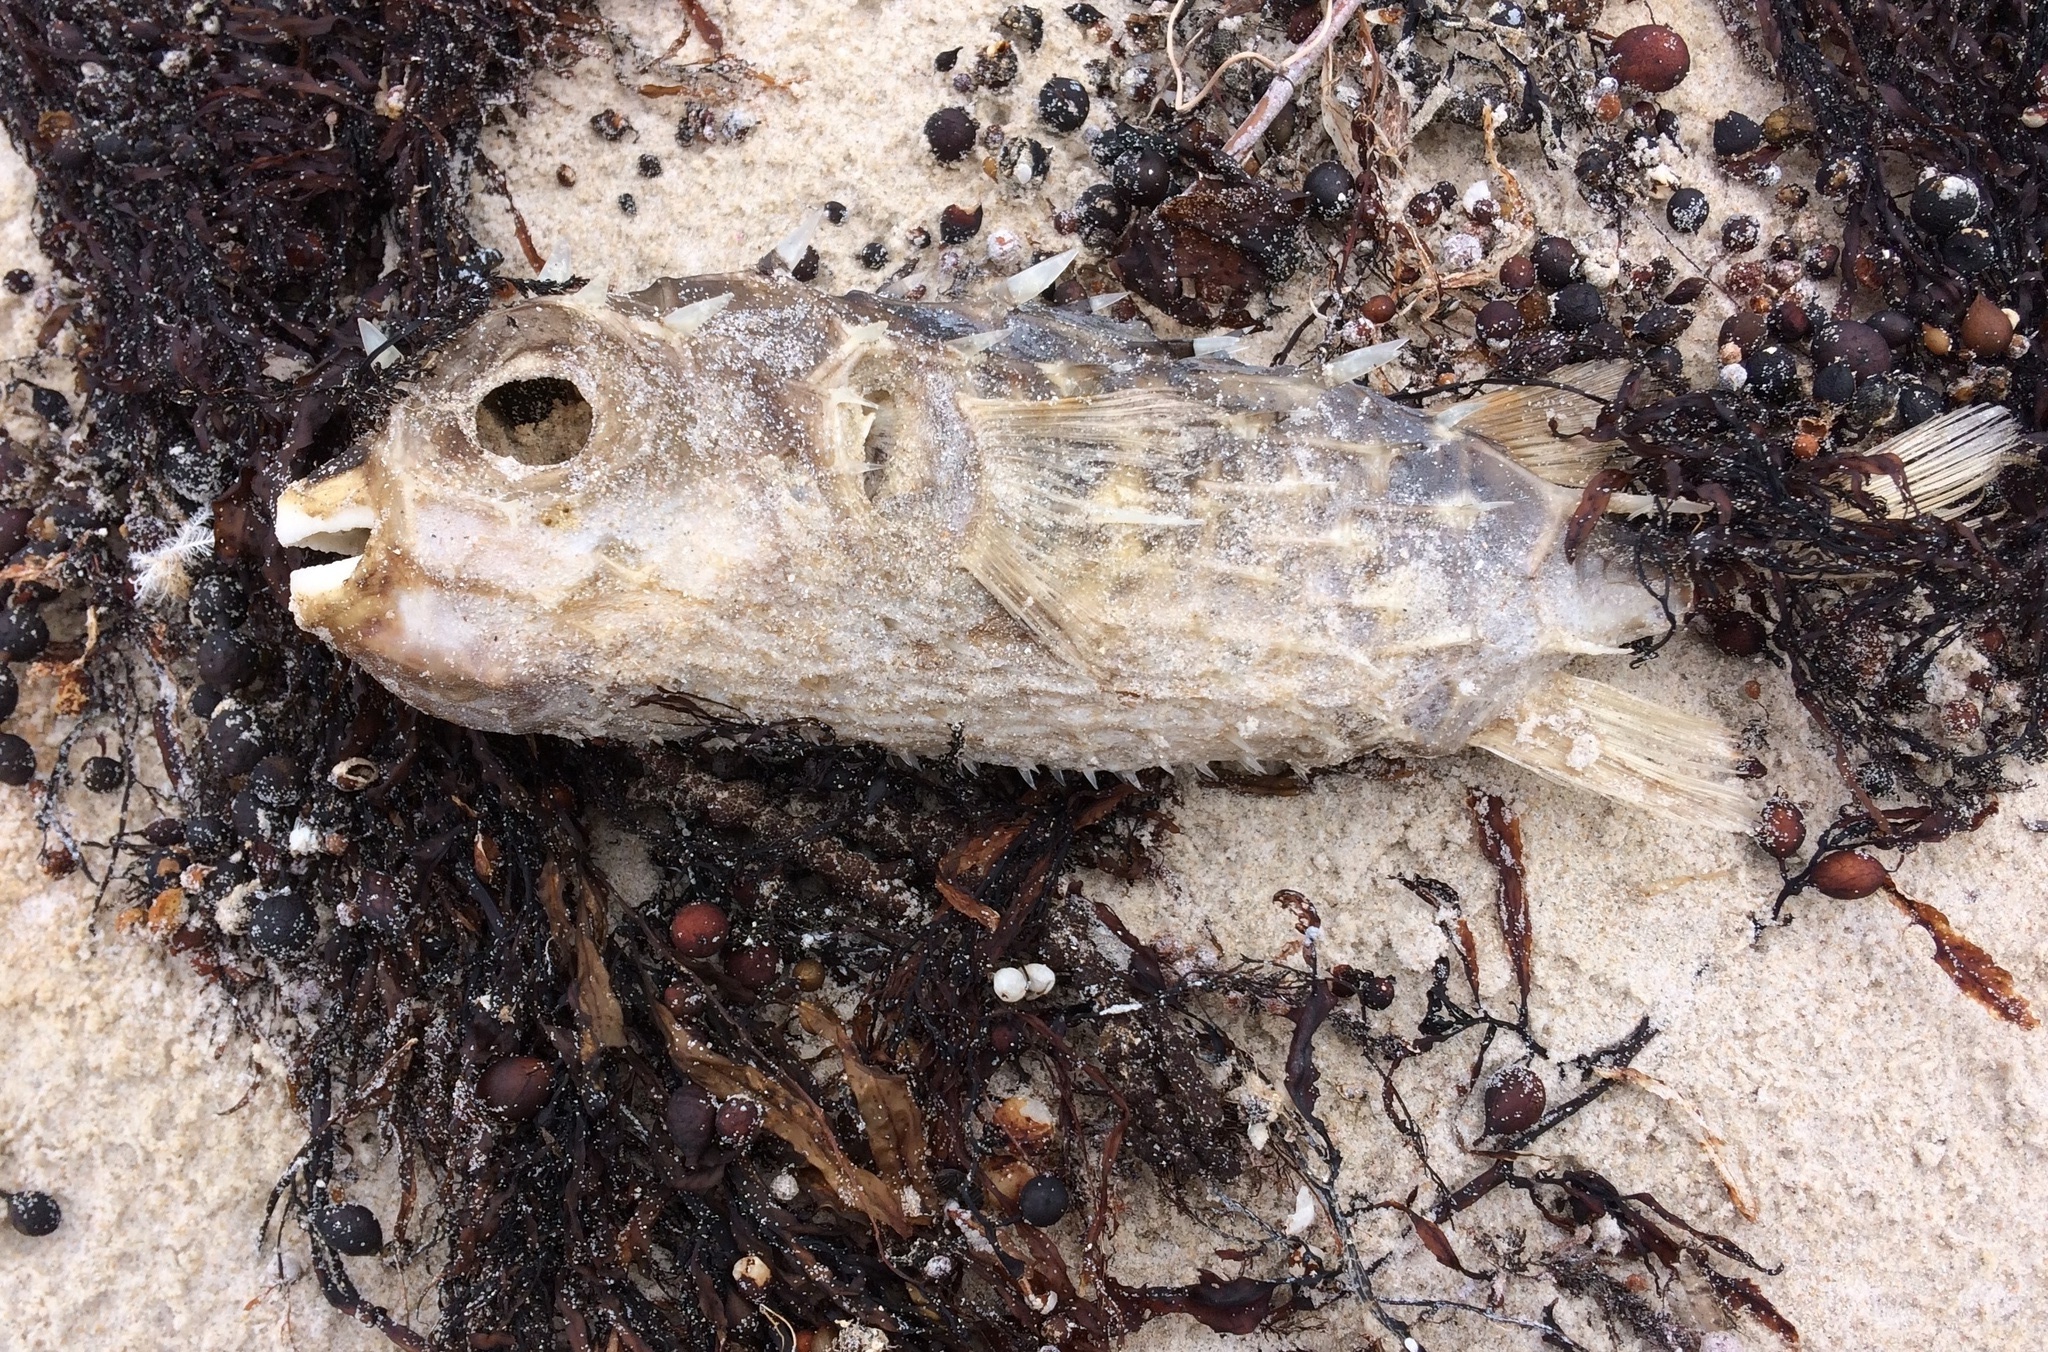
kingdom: Animalia
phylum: Chordata
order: Tetraodontiformes
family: Diodontidae
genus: Allomycterus
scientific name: Allomycterus pilatus
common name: No common name
